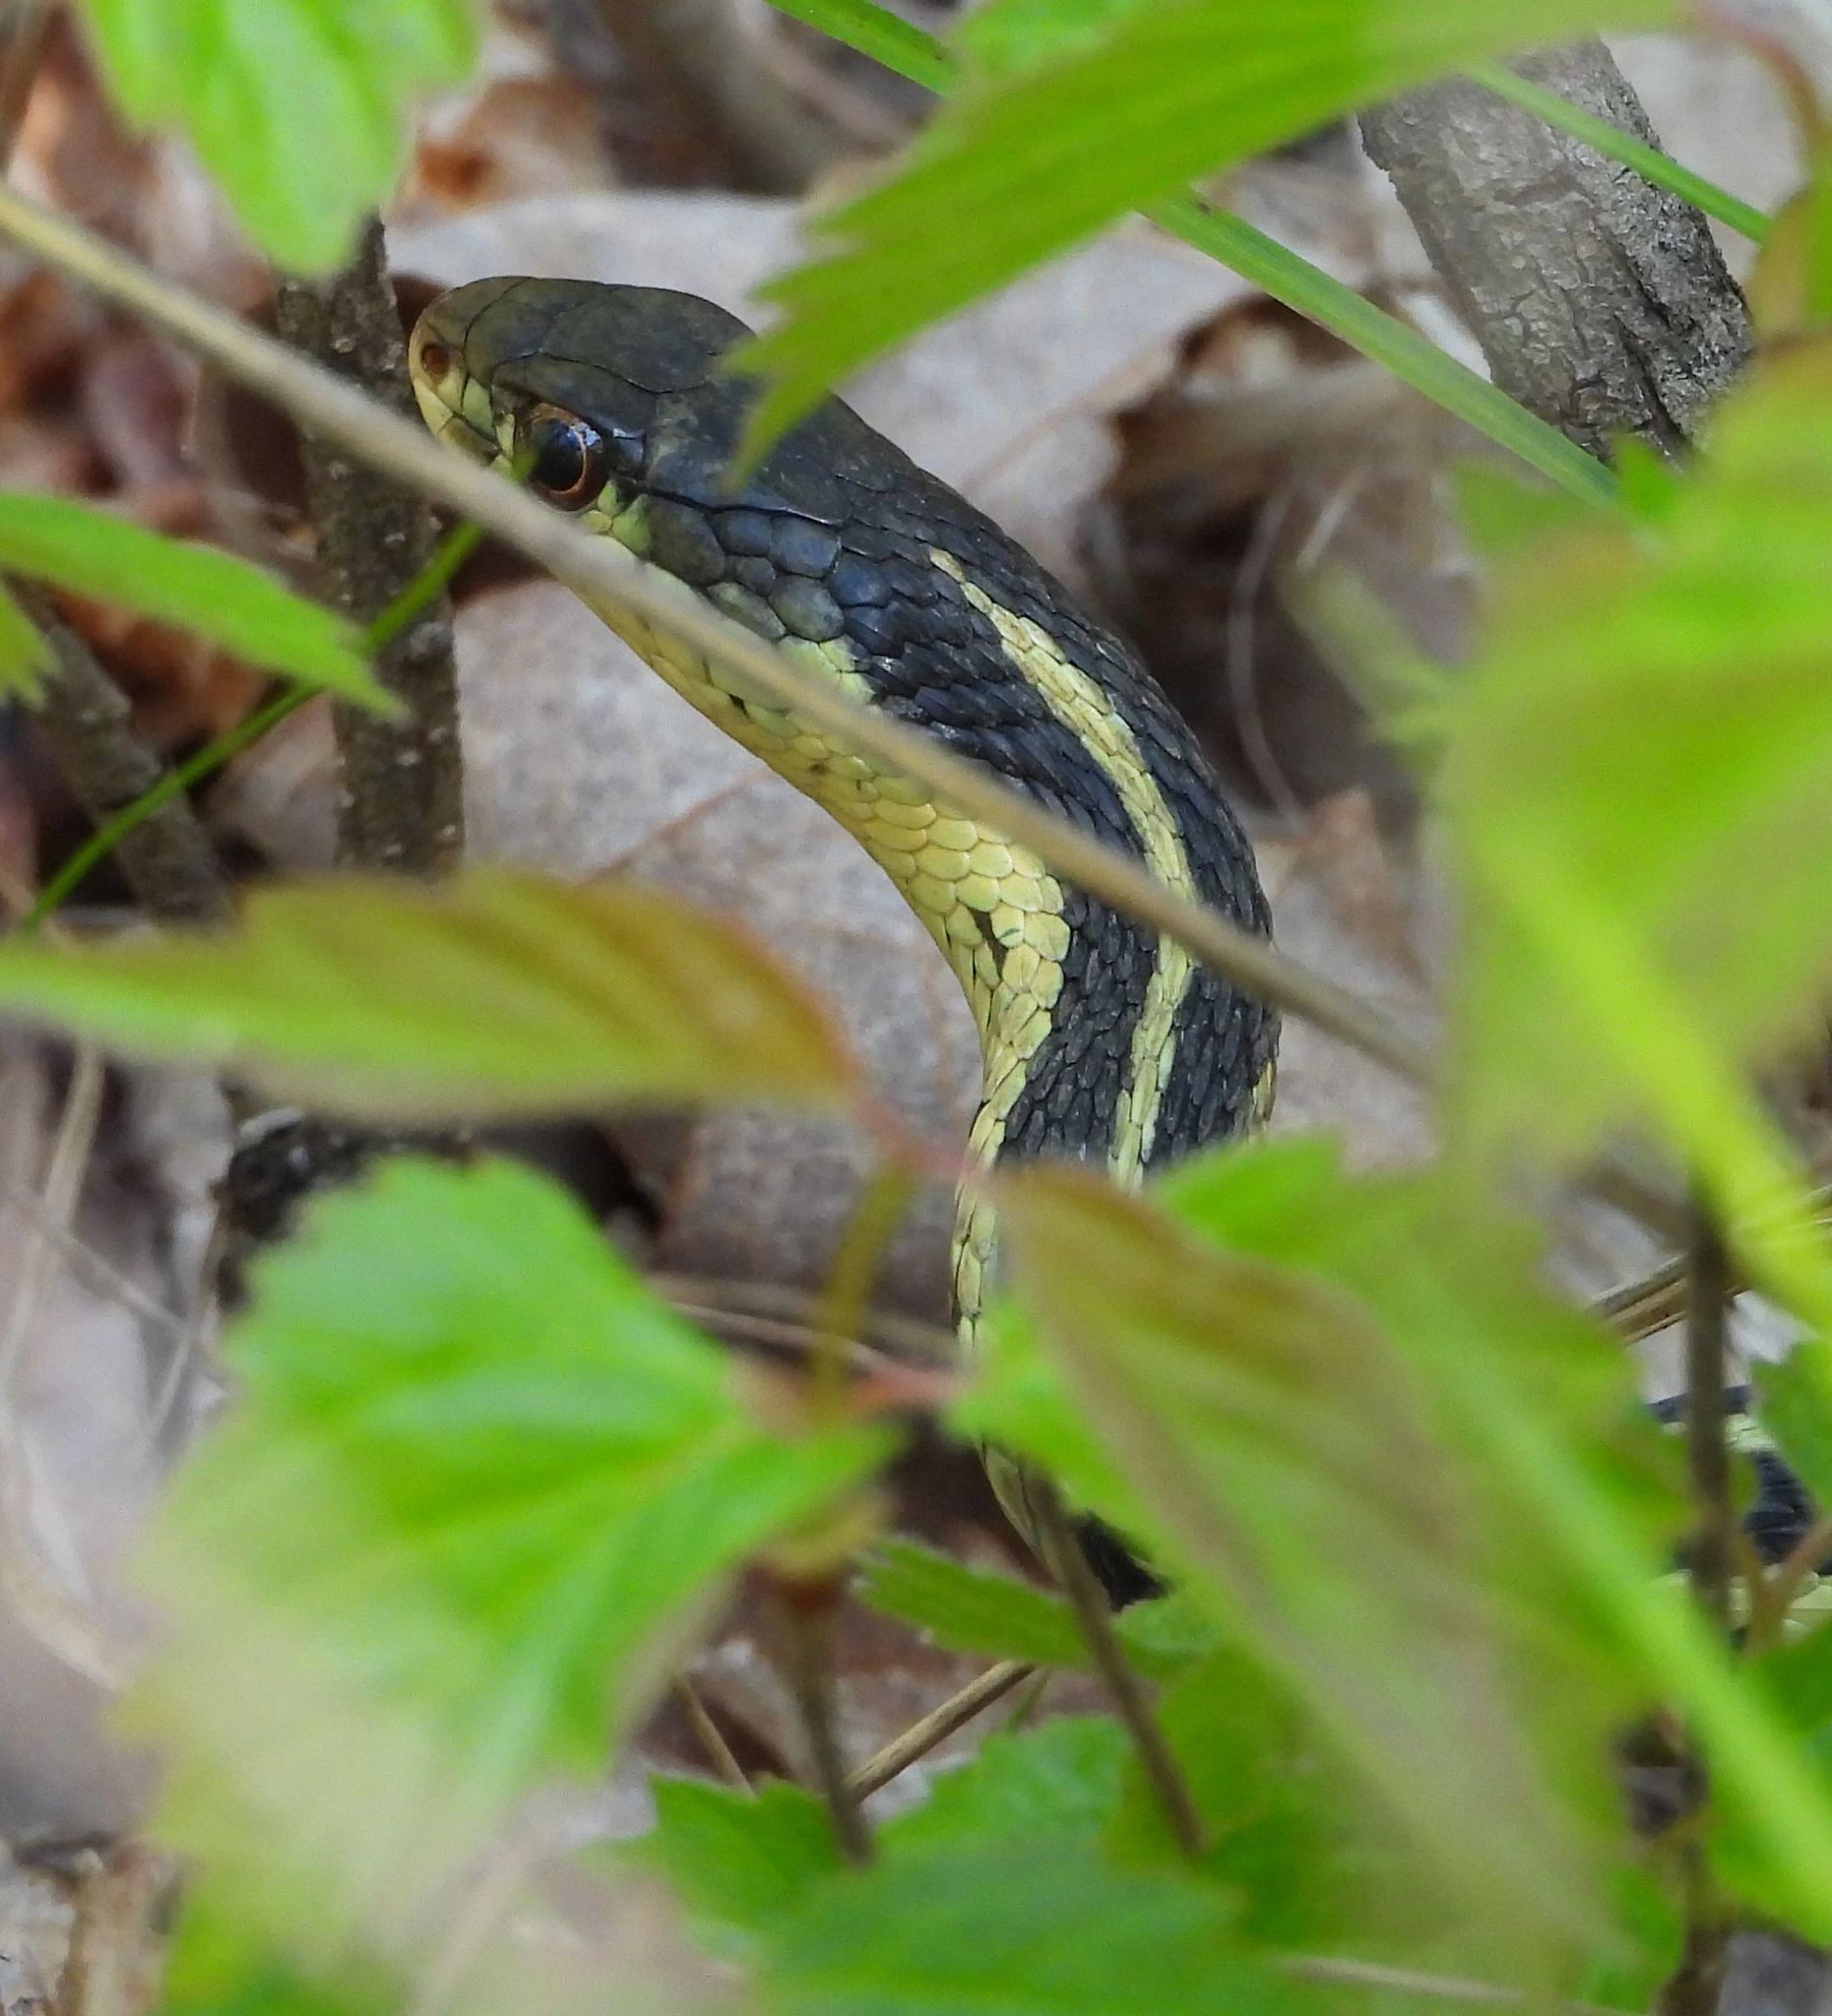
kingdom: Animalia
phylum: Chordata
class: Squamata
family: Colubridae
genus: Thamnophis
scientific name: Thamnophis sirtalis
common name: Common garter snake
